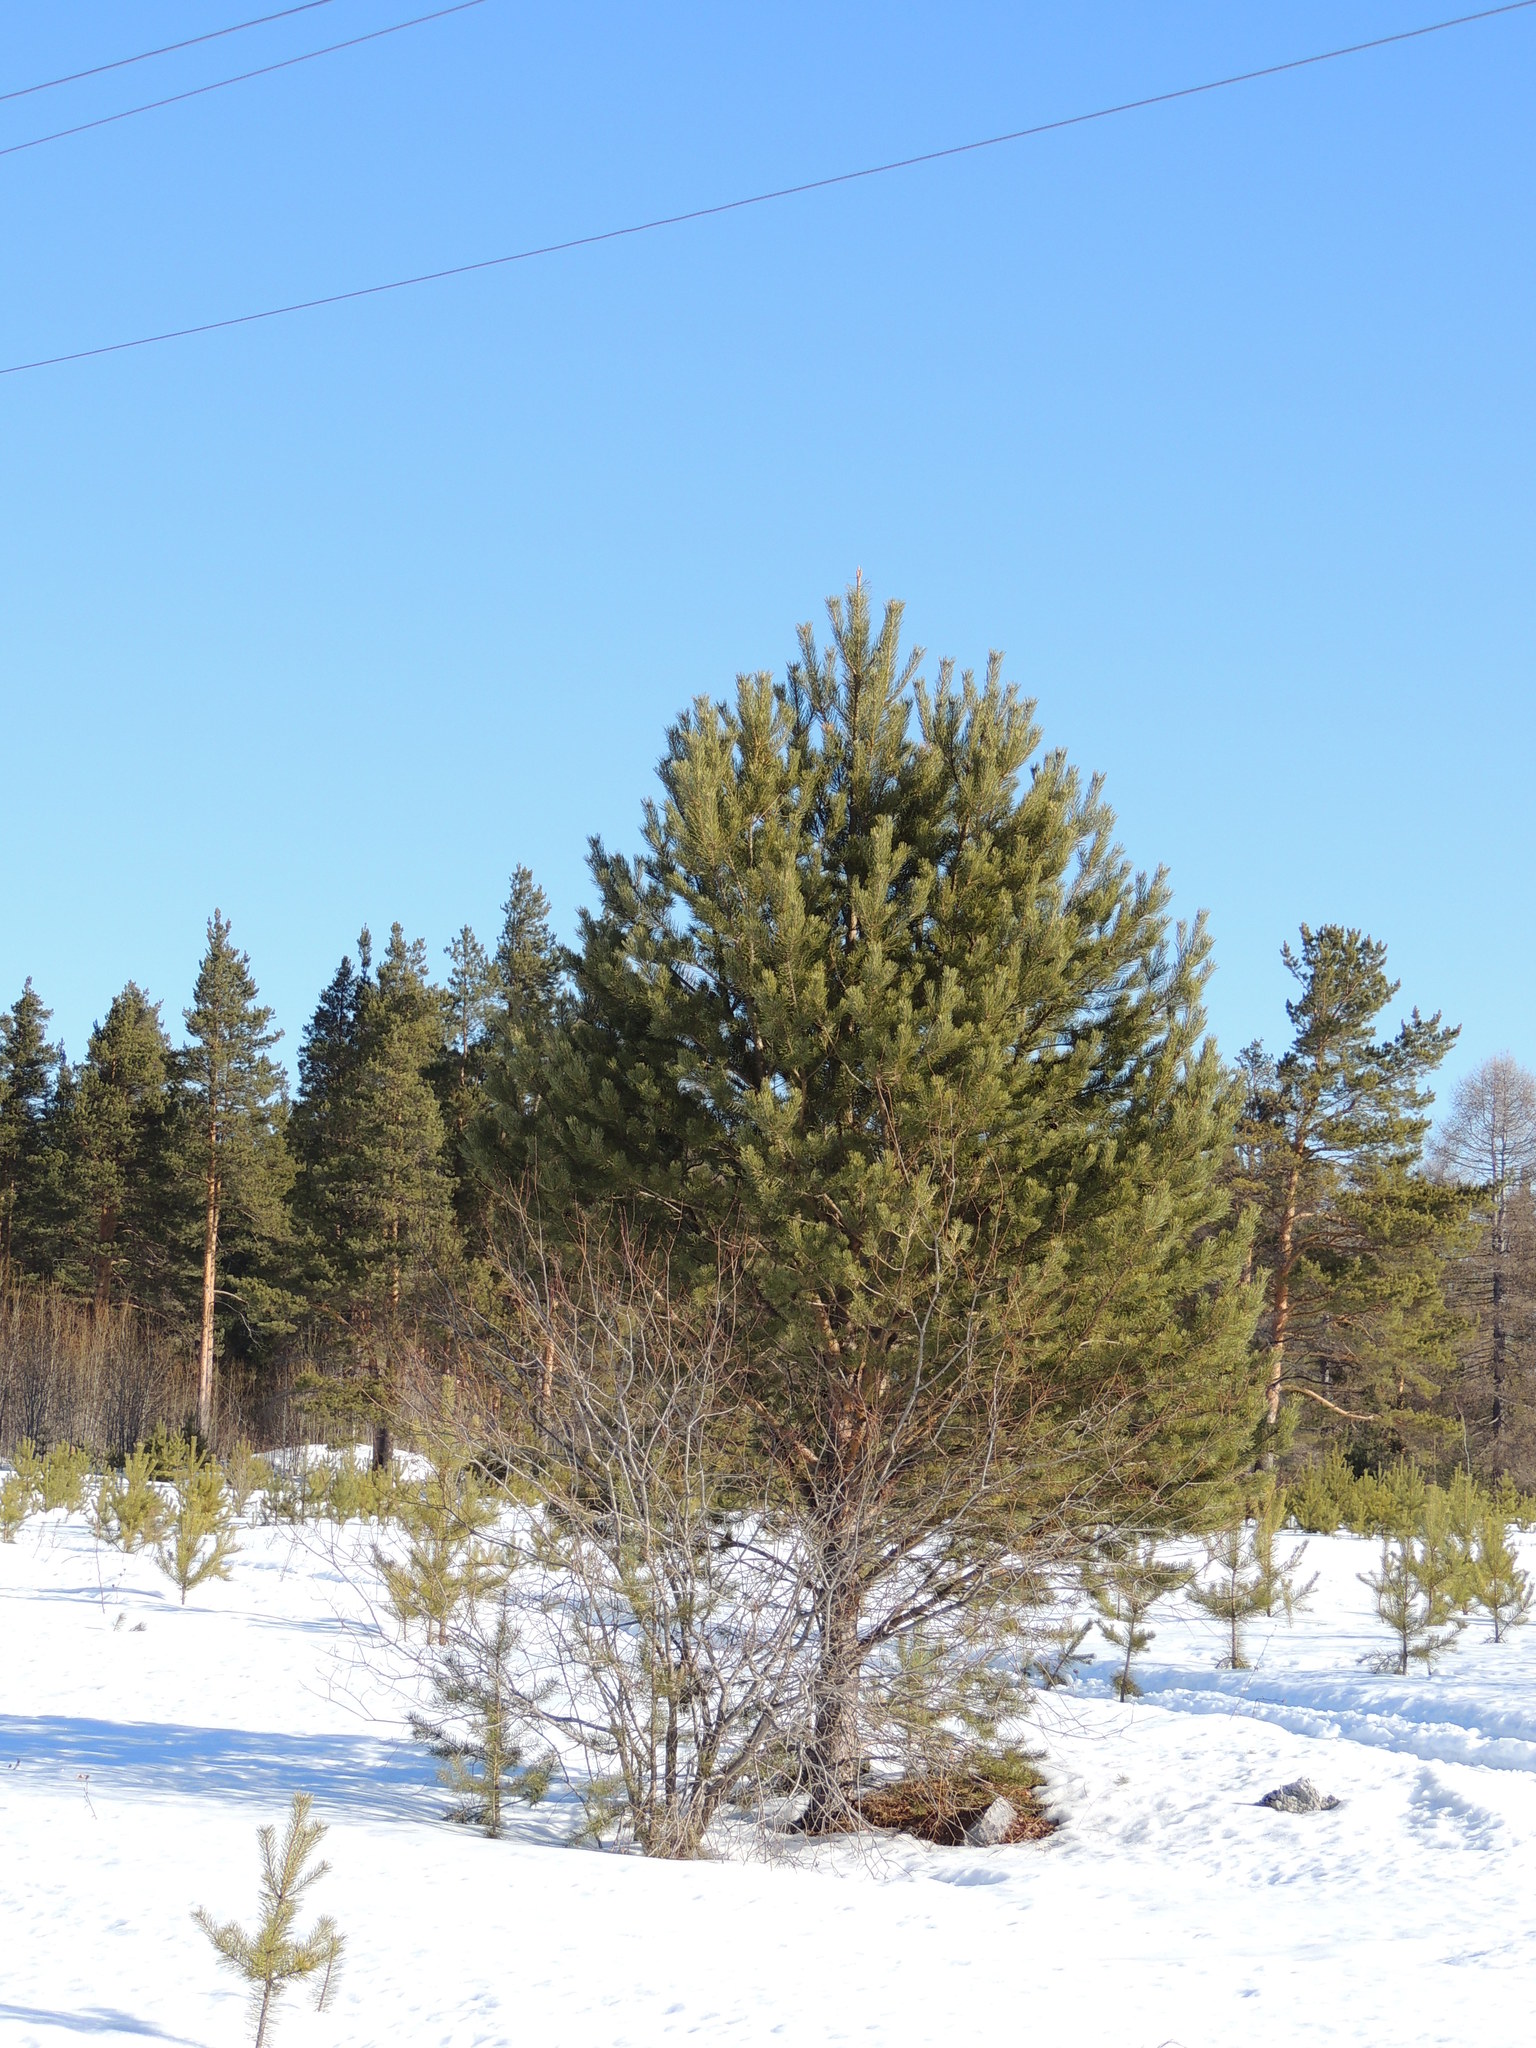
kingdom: Plantae
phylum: Tracheophyta
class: Pinopsida
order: Pinales
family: Pinaceae
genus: Pinus
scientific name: Pinus sylvestris
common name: Scots pine
